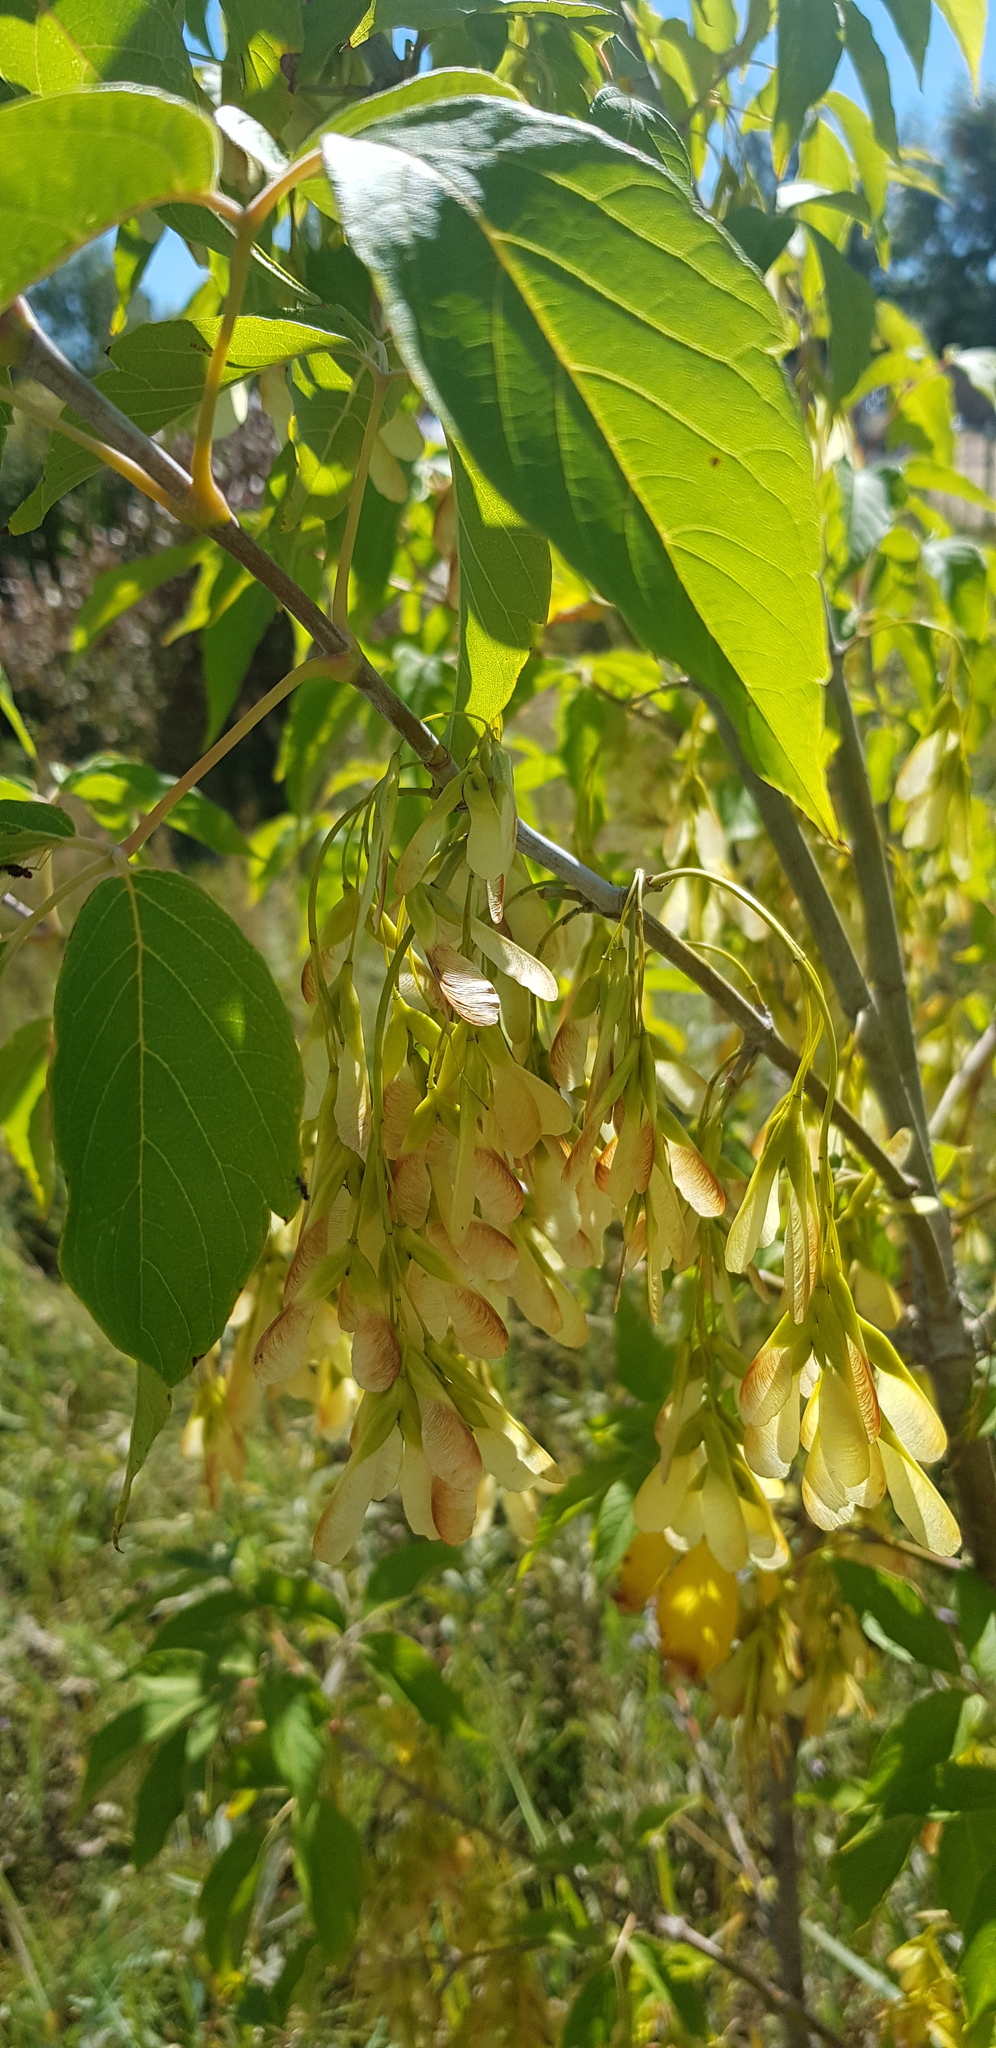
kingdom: Plantae
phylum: Tracheophyta
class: Magnoliopsida
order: Sapindales
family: Sapindaceae
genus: Acer
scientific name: Acer negundo
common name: Ashleaf maple
